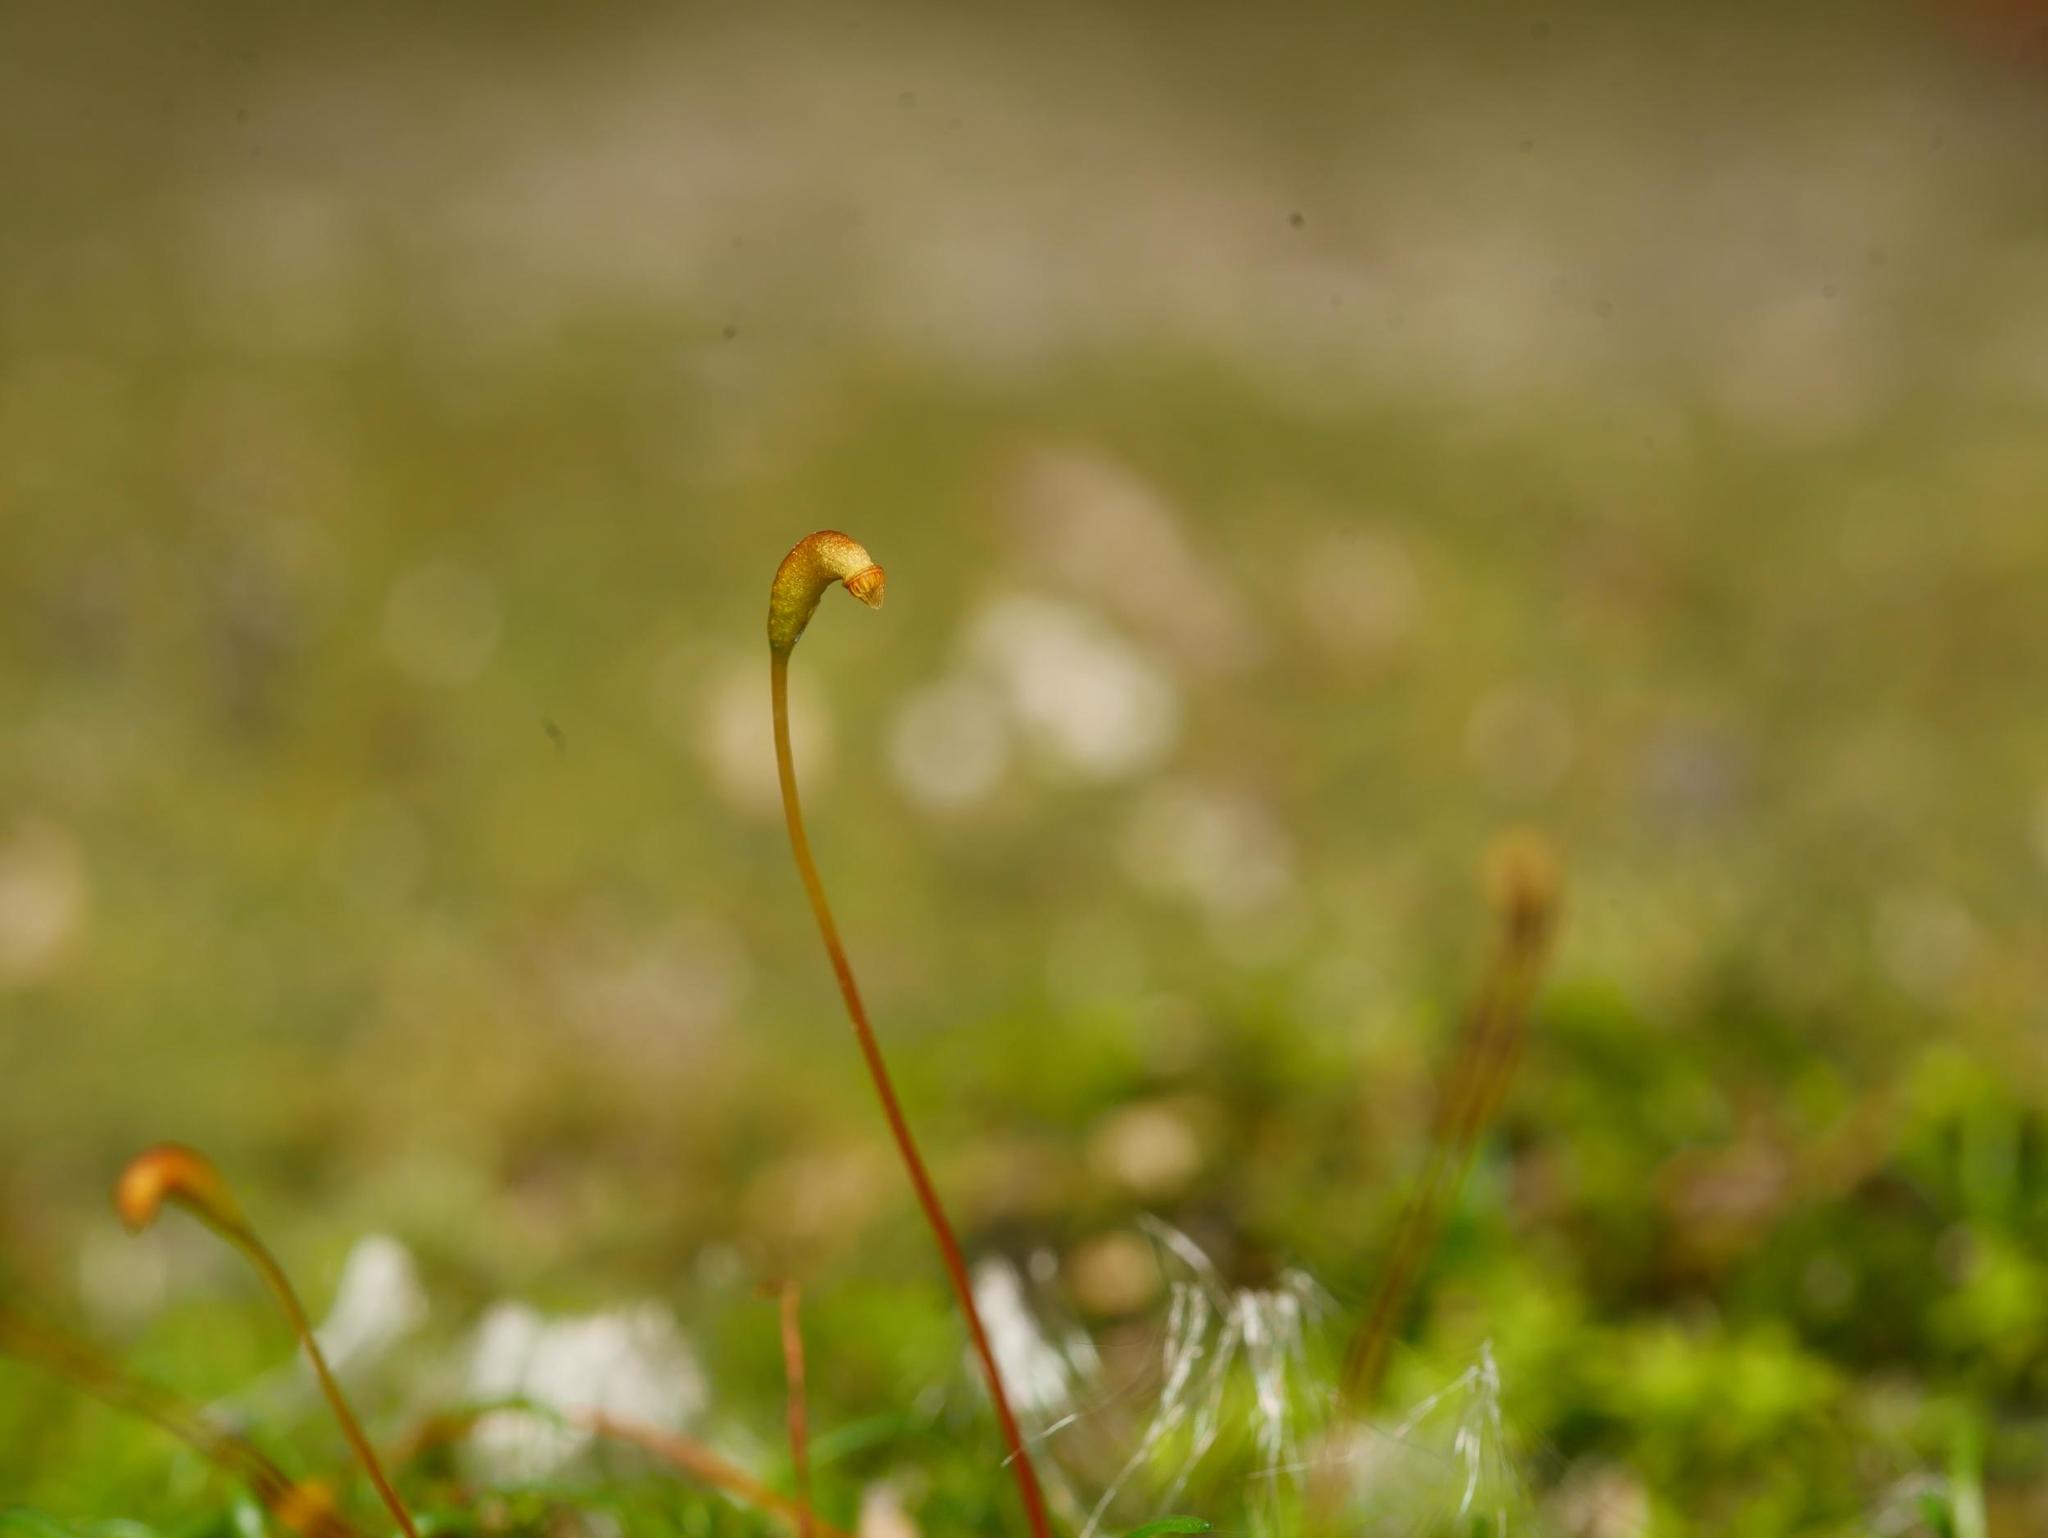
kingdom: Plantae
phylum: Bryophyta
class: Bryopsida
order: Hypnales
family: Amblystegiaceae
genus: Amblystegium
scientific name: Amblystegium serpens
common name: Jurkatzka's feather moss
